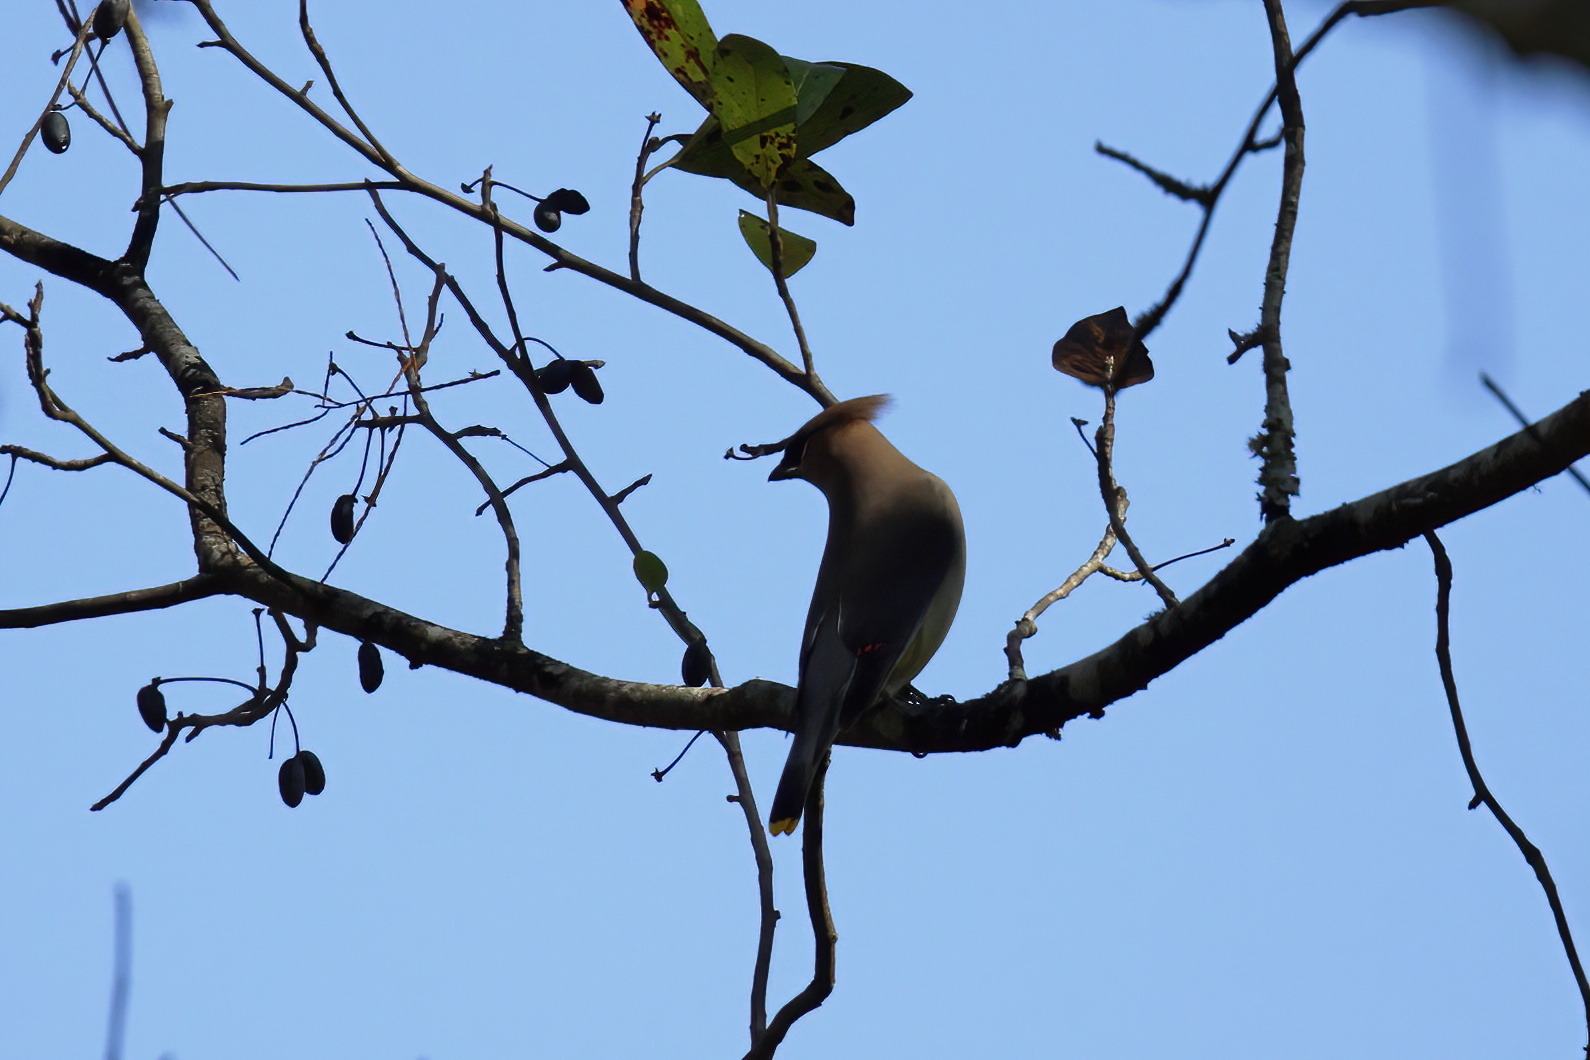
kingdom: Animalia
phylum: Chordata
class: Aves
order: Passeriformes
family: Bombycillidae
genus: Bombycilla
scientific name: Bombycilla cedrorum
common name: Cedar waxwing
